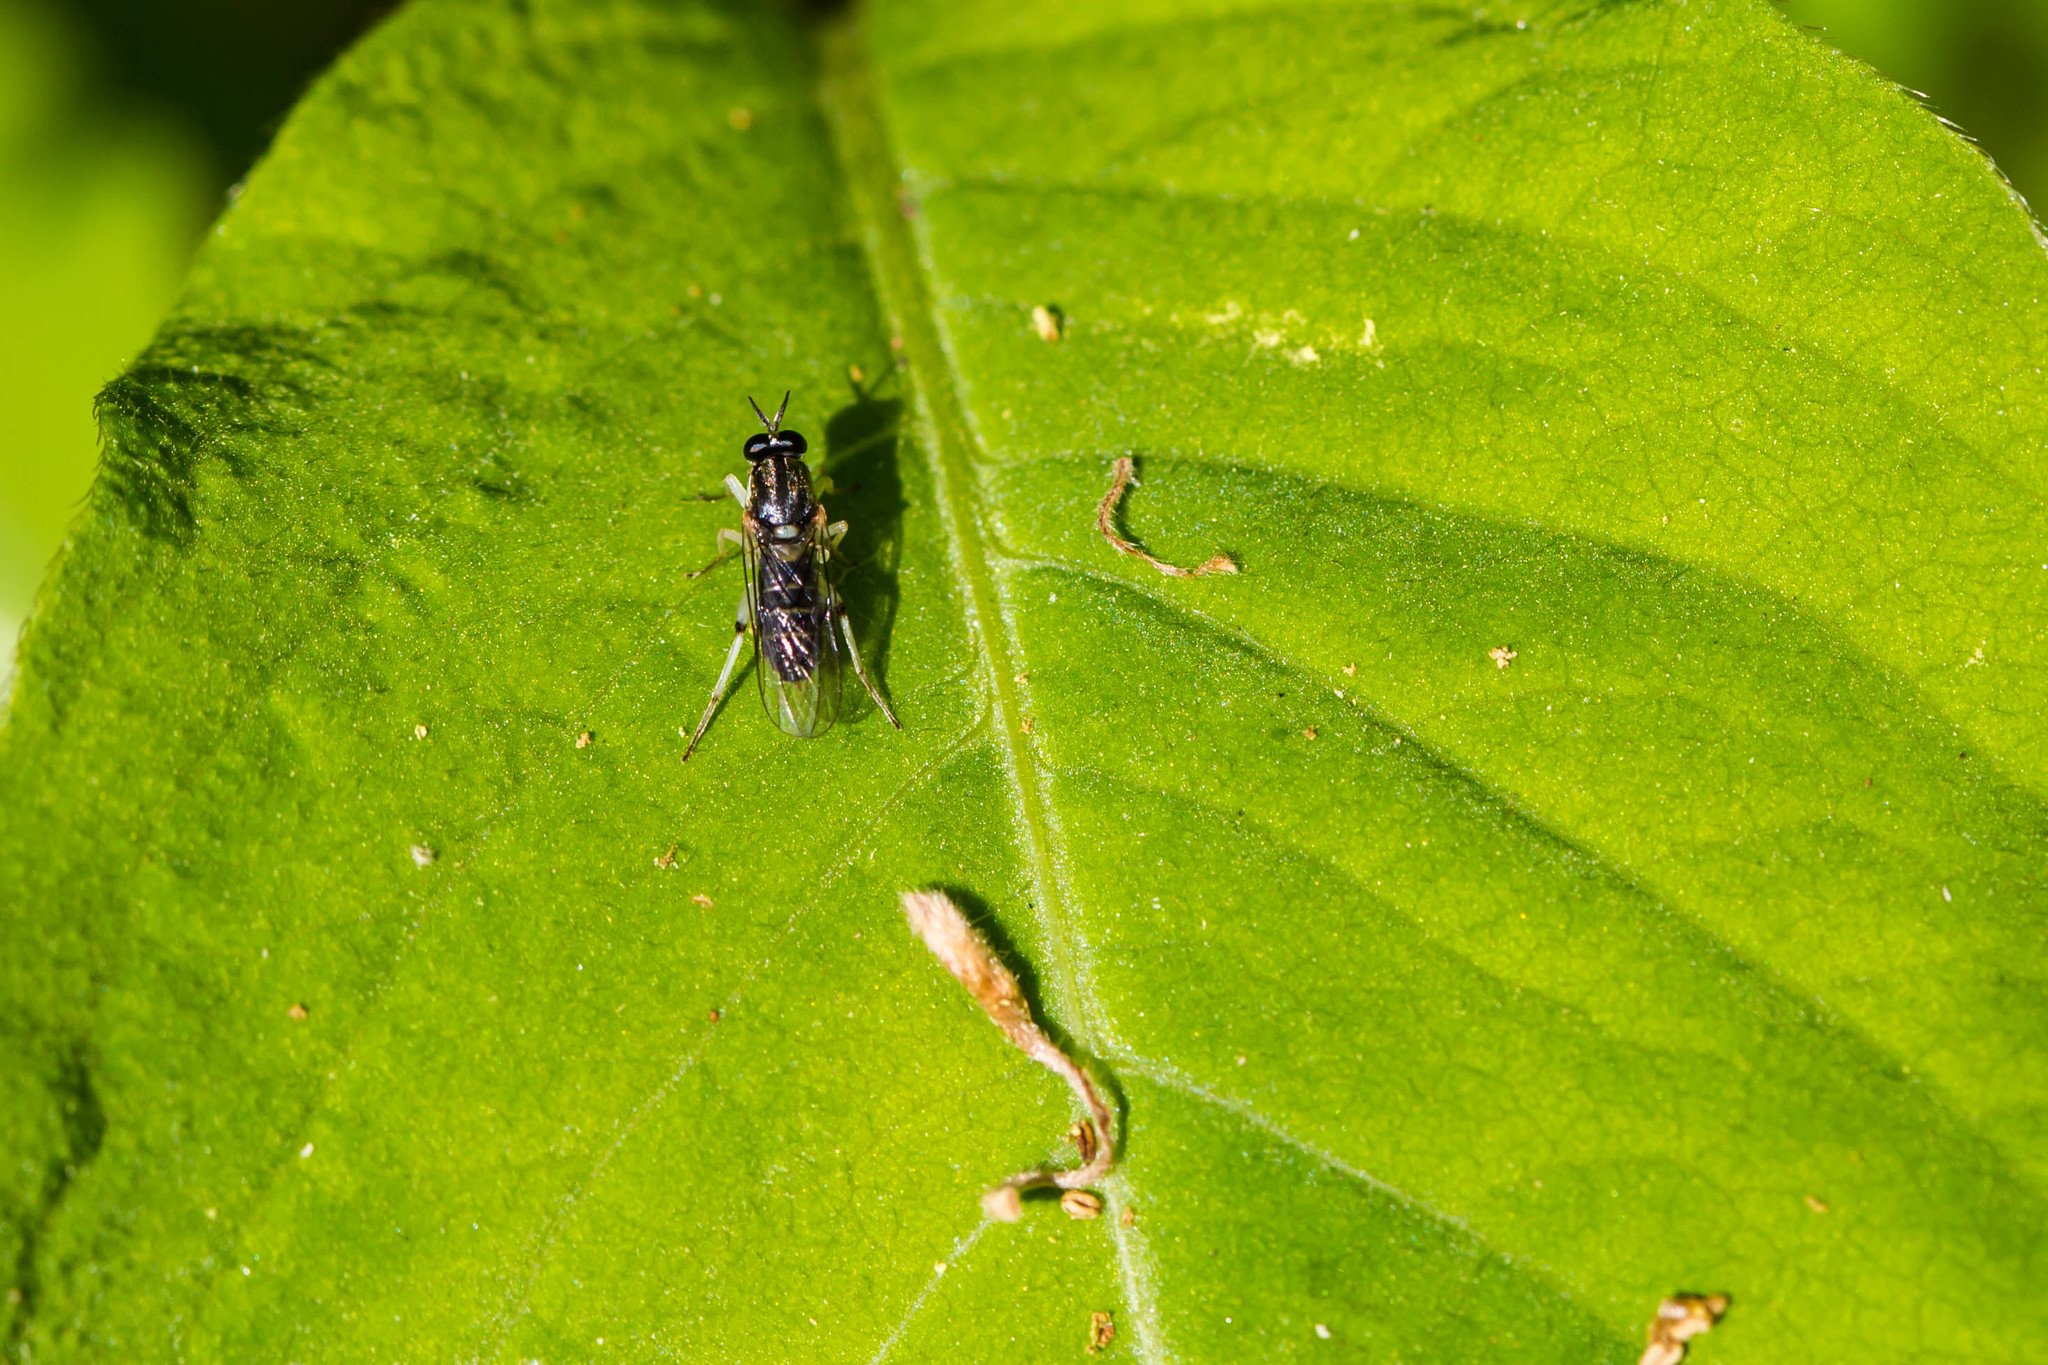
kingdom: Animalia
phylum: Arthropoda
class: Insecta
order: Diptera
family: Xylomyidae
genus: Solva
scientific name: Solva pallipes
